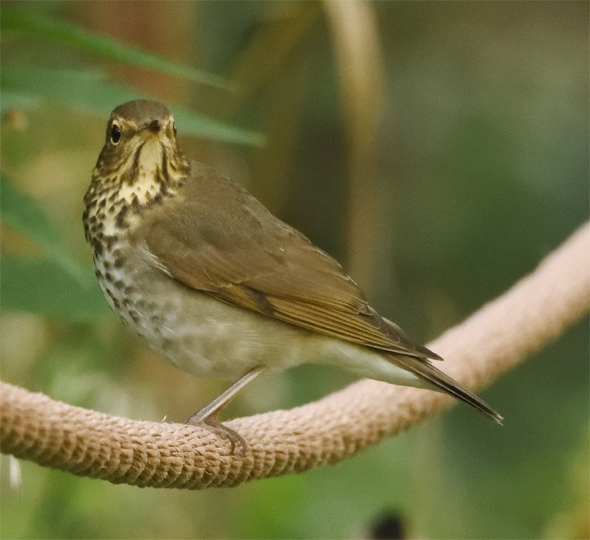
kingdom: Animalia
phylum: Chordata
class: Aves
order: Passeriformes
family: Turdidae
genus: Catharus
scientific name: Catharus ustulatus
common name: Swainson's thrush
